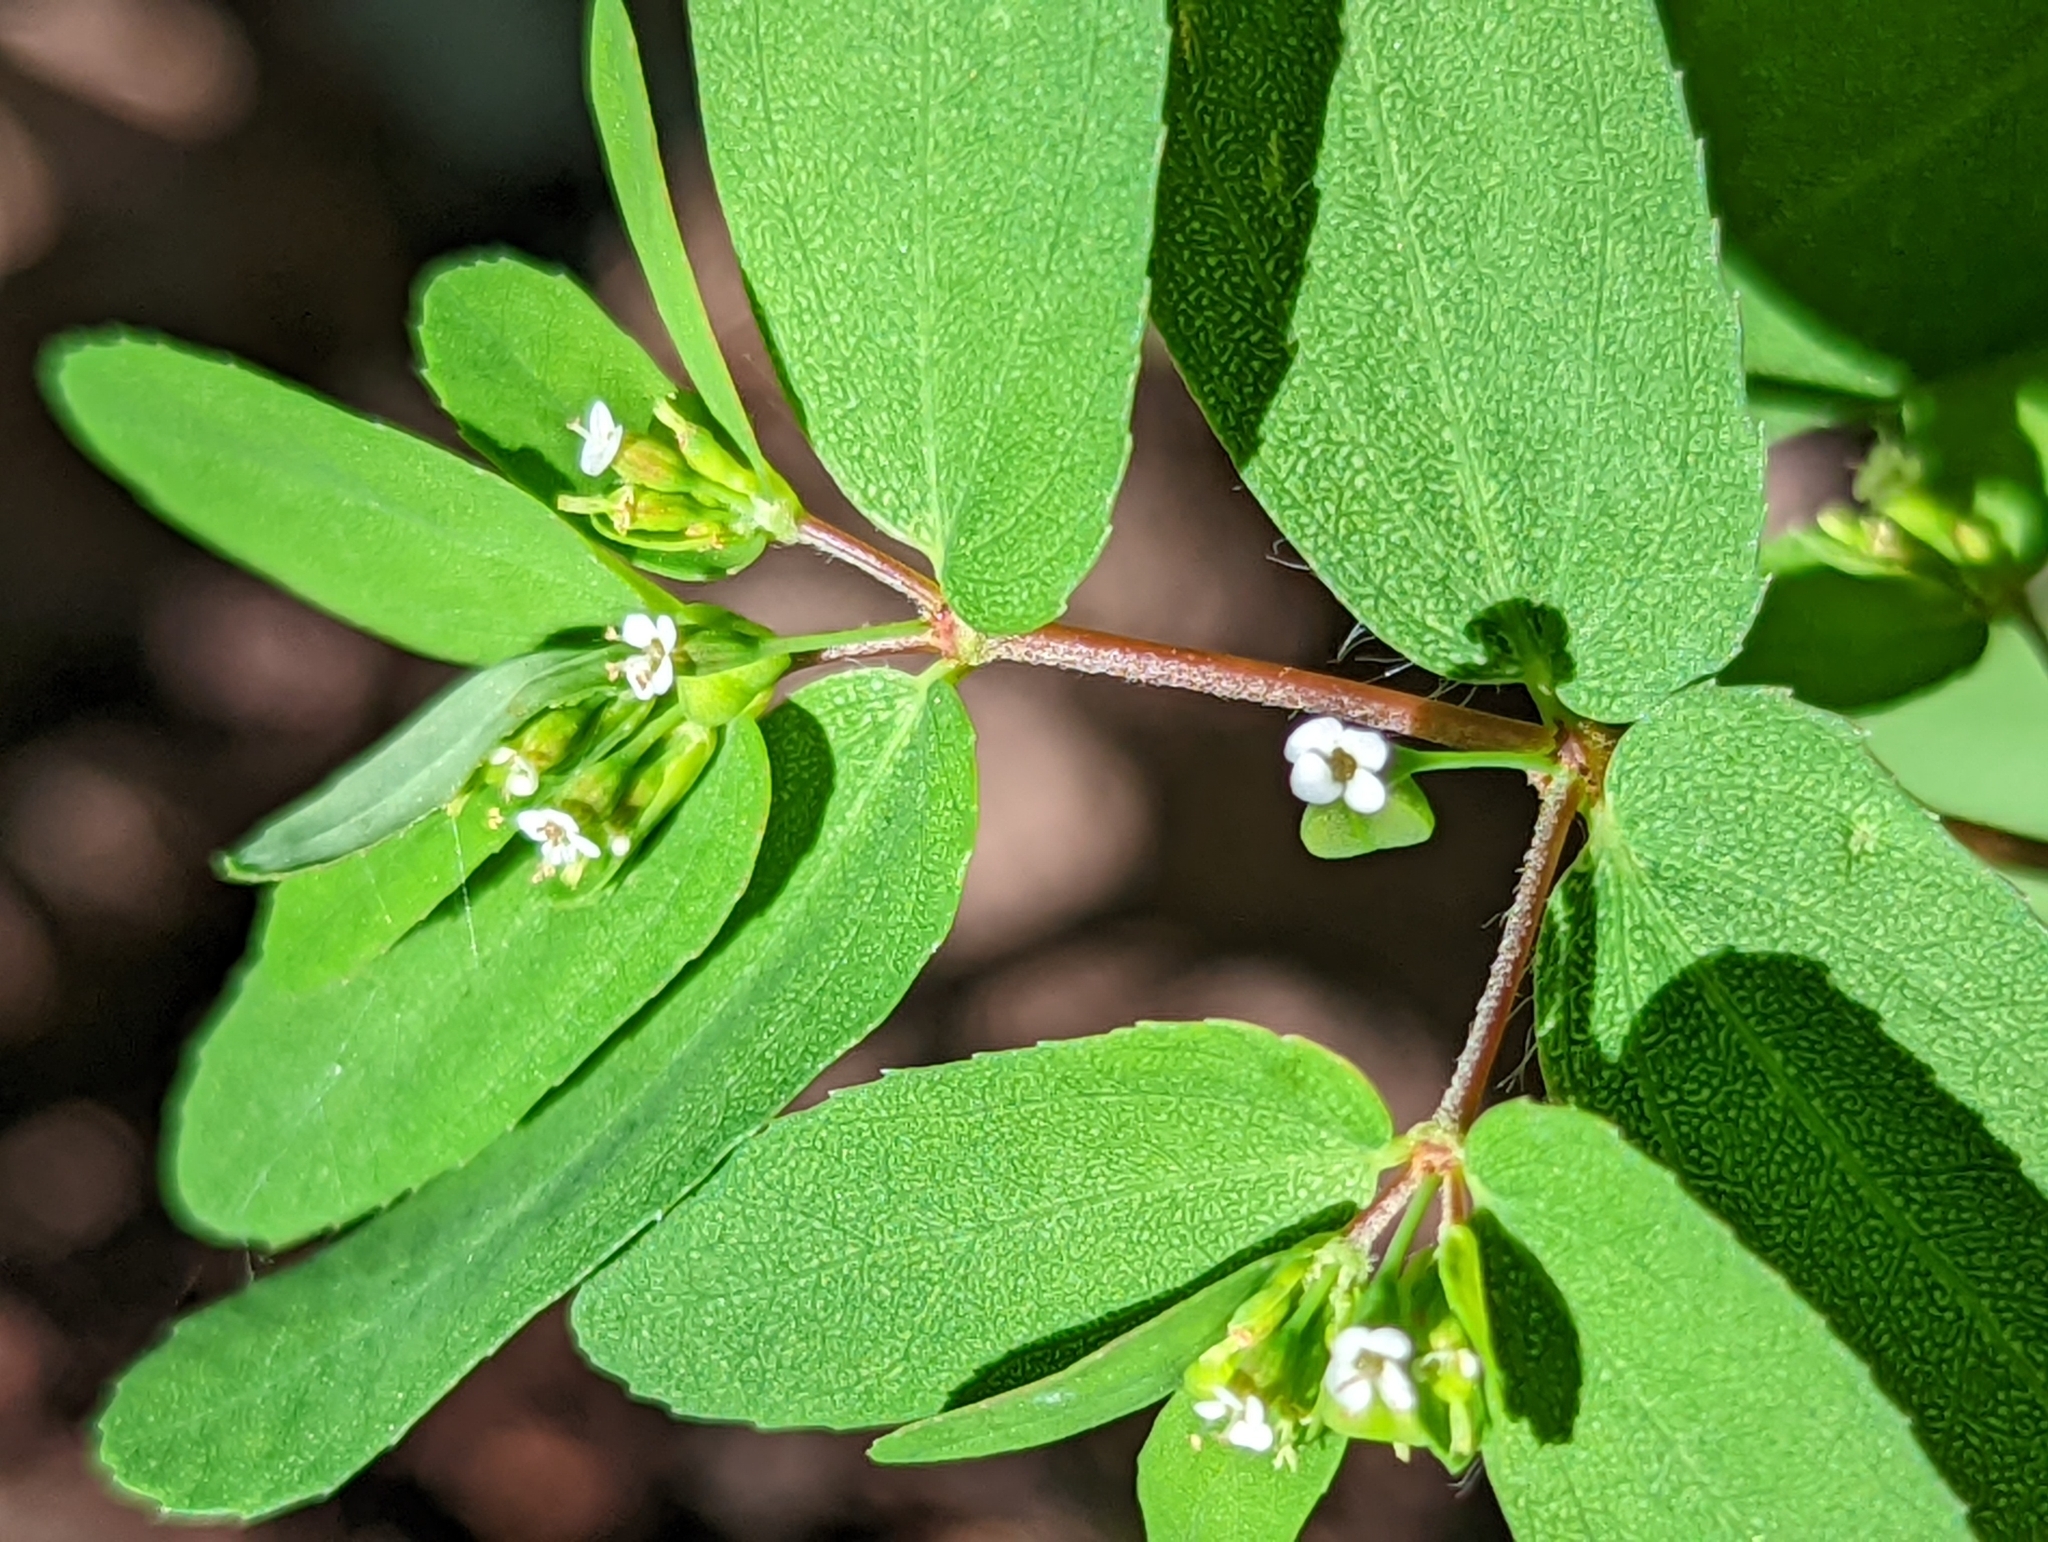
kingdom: Plantae
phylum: Tracheophyta
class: Magnoliopsida
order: Malpighiales
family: Euphorbiaceae
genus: Euphorbia
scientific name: Euphorbia nutans
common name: Eyebane
